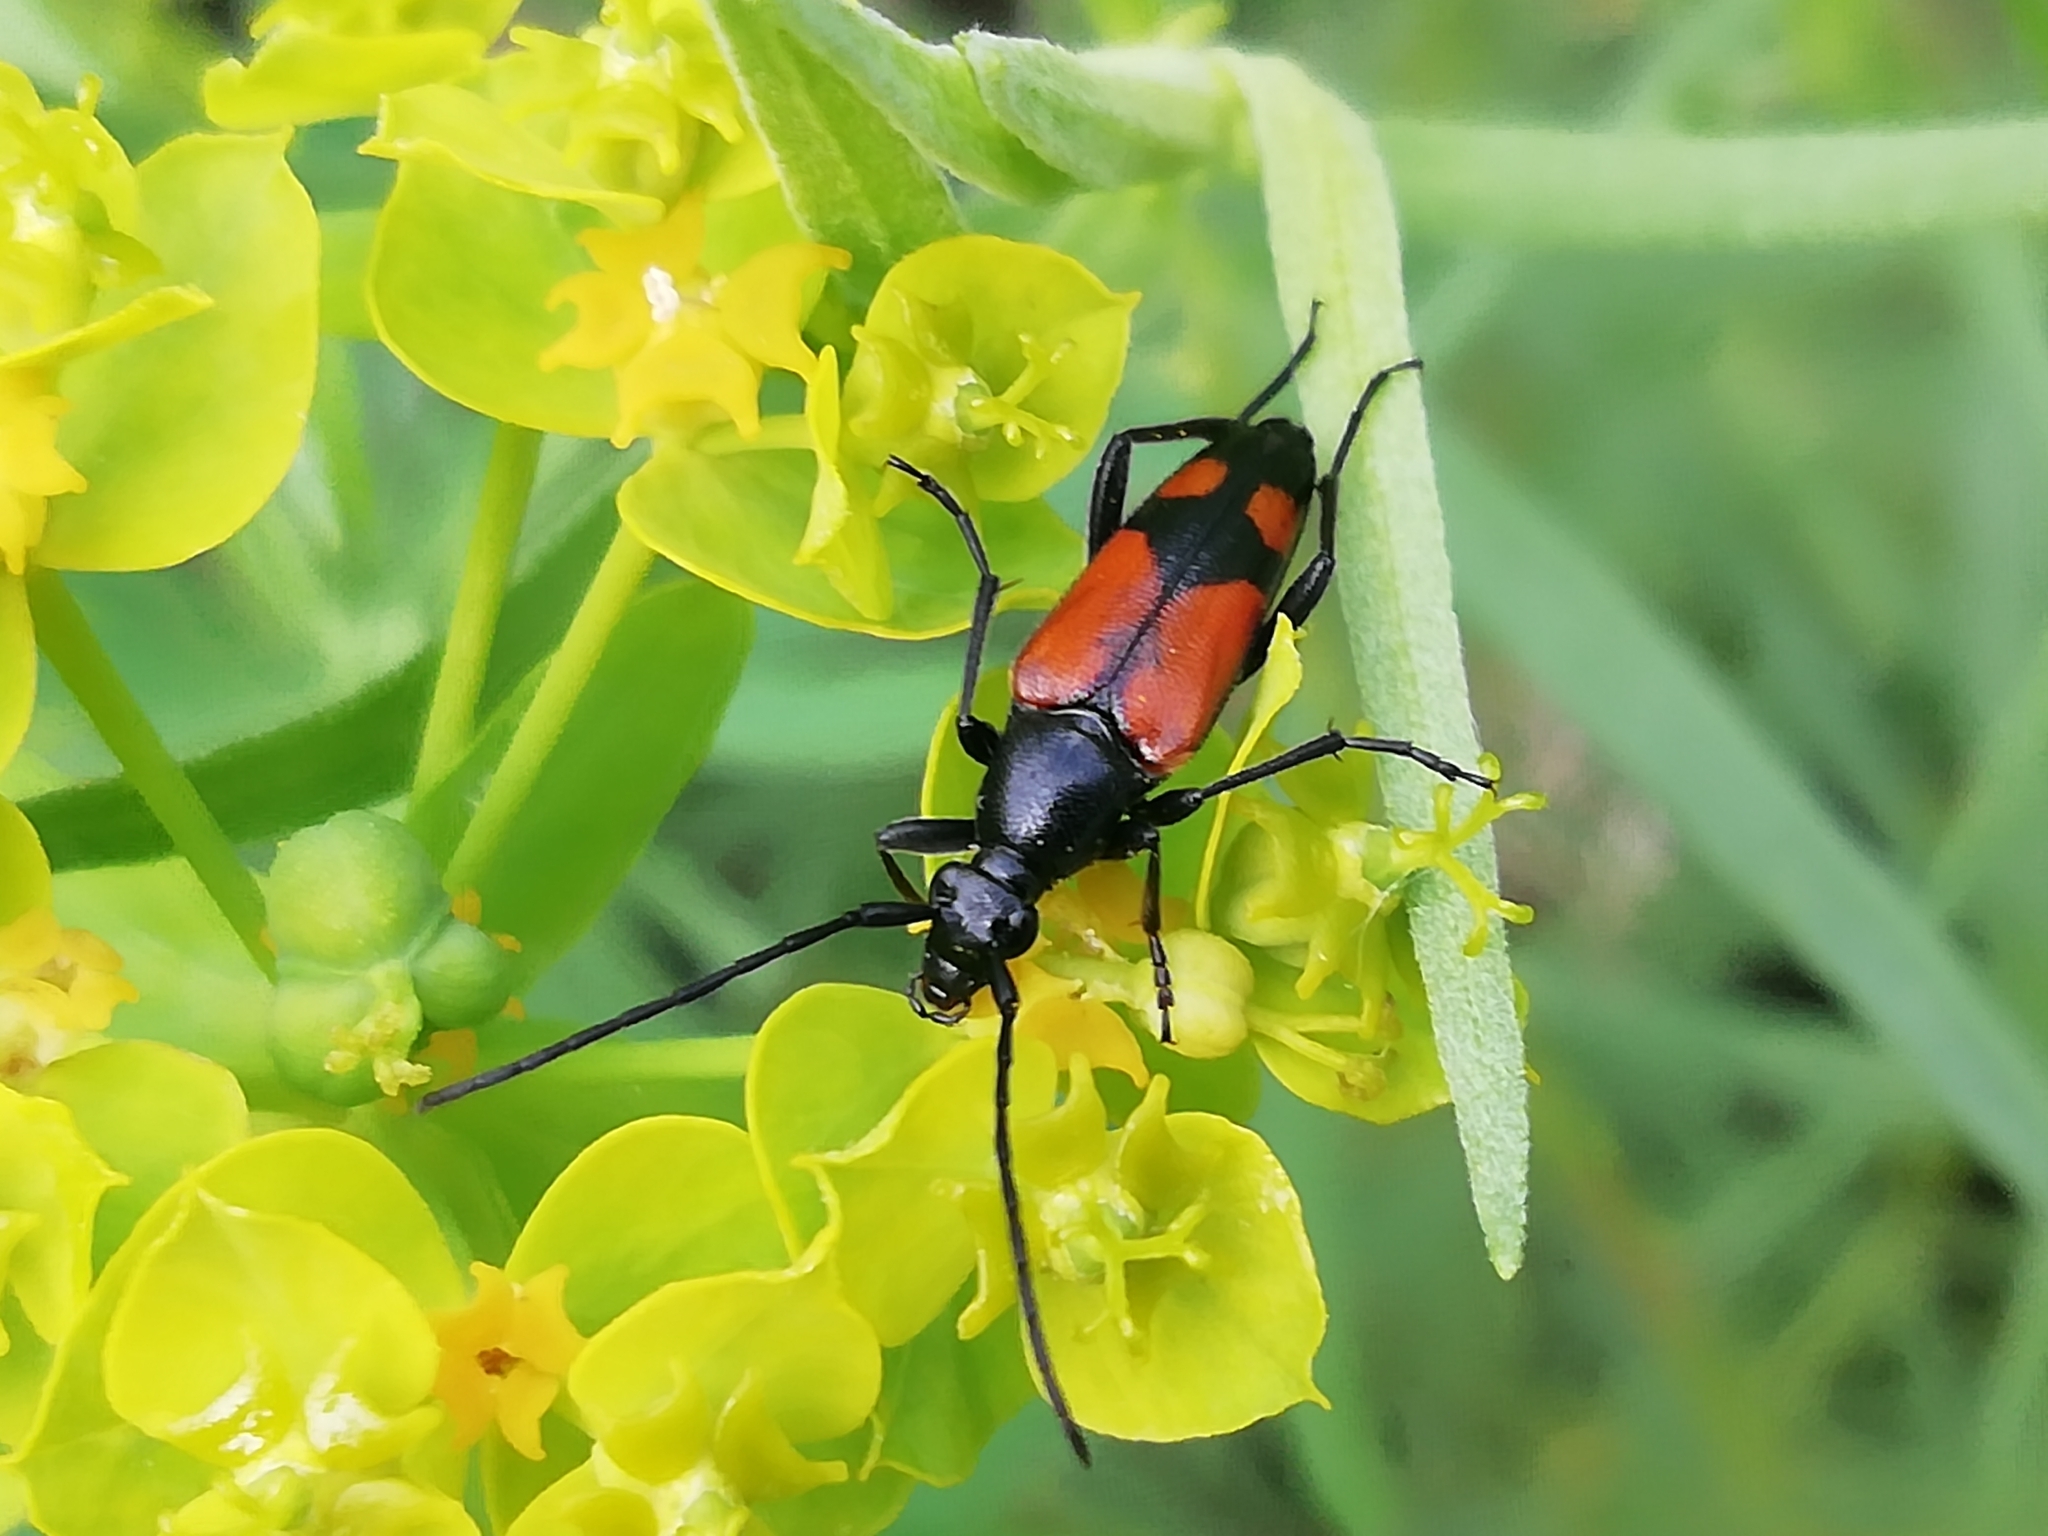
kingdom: Animalia
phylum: Arthropoda
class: Insecta
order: Coleoptera
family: Cerambycidae
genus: Stenurella
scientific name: Stenurella bifasciata
